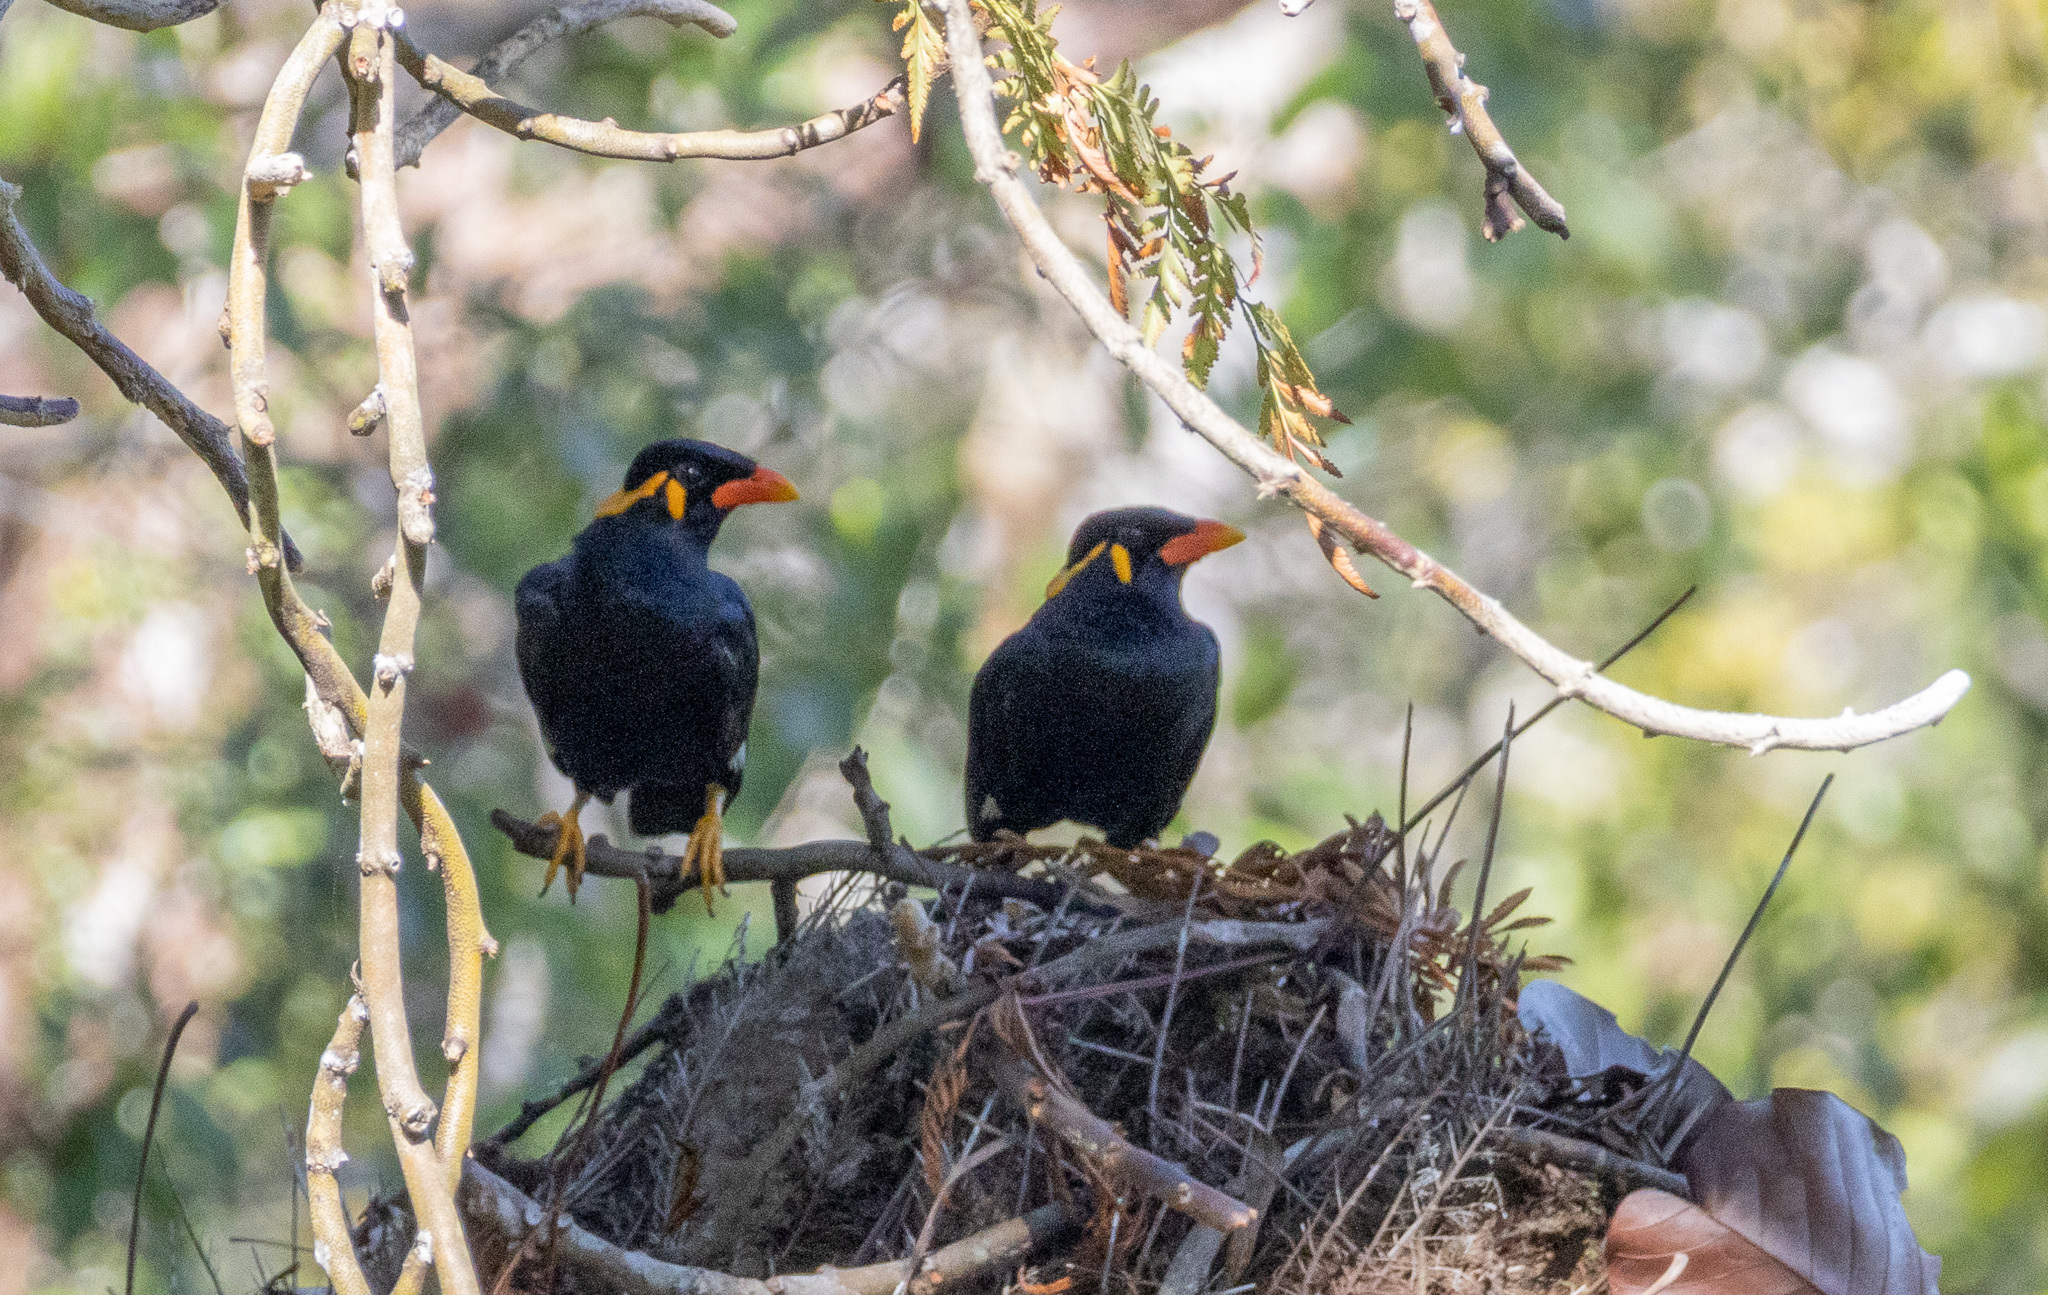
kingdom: Animalia
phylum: Chordata
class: Aves
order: Passeriformes
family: Sturnidae
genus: Gracula
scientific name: Gracula religiosa
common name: Common hill myna
